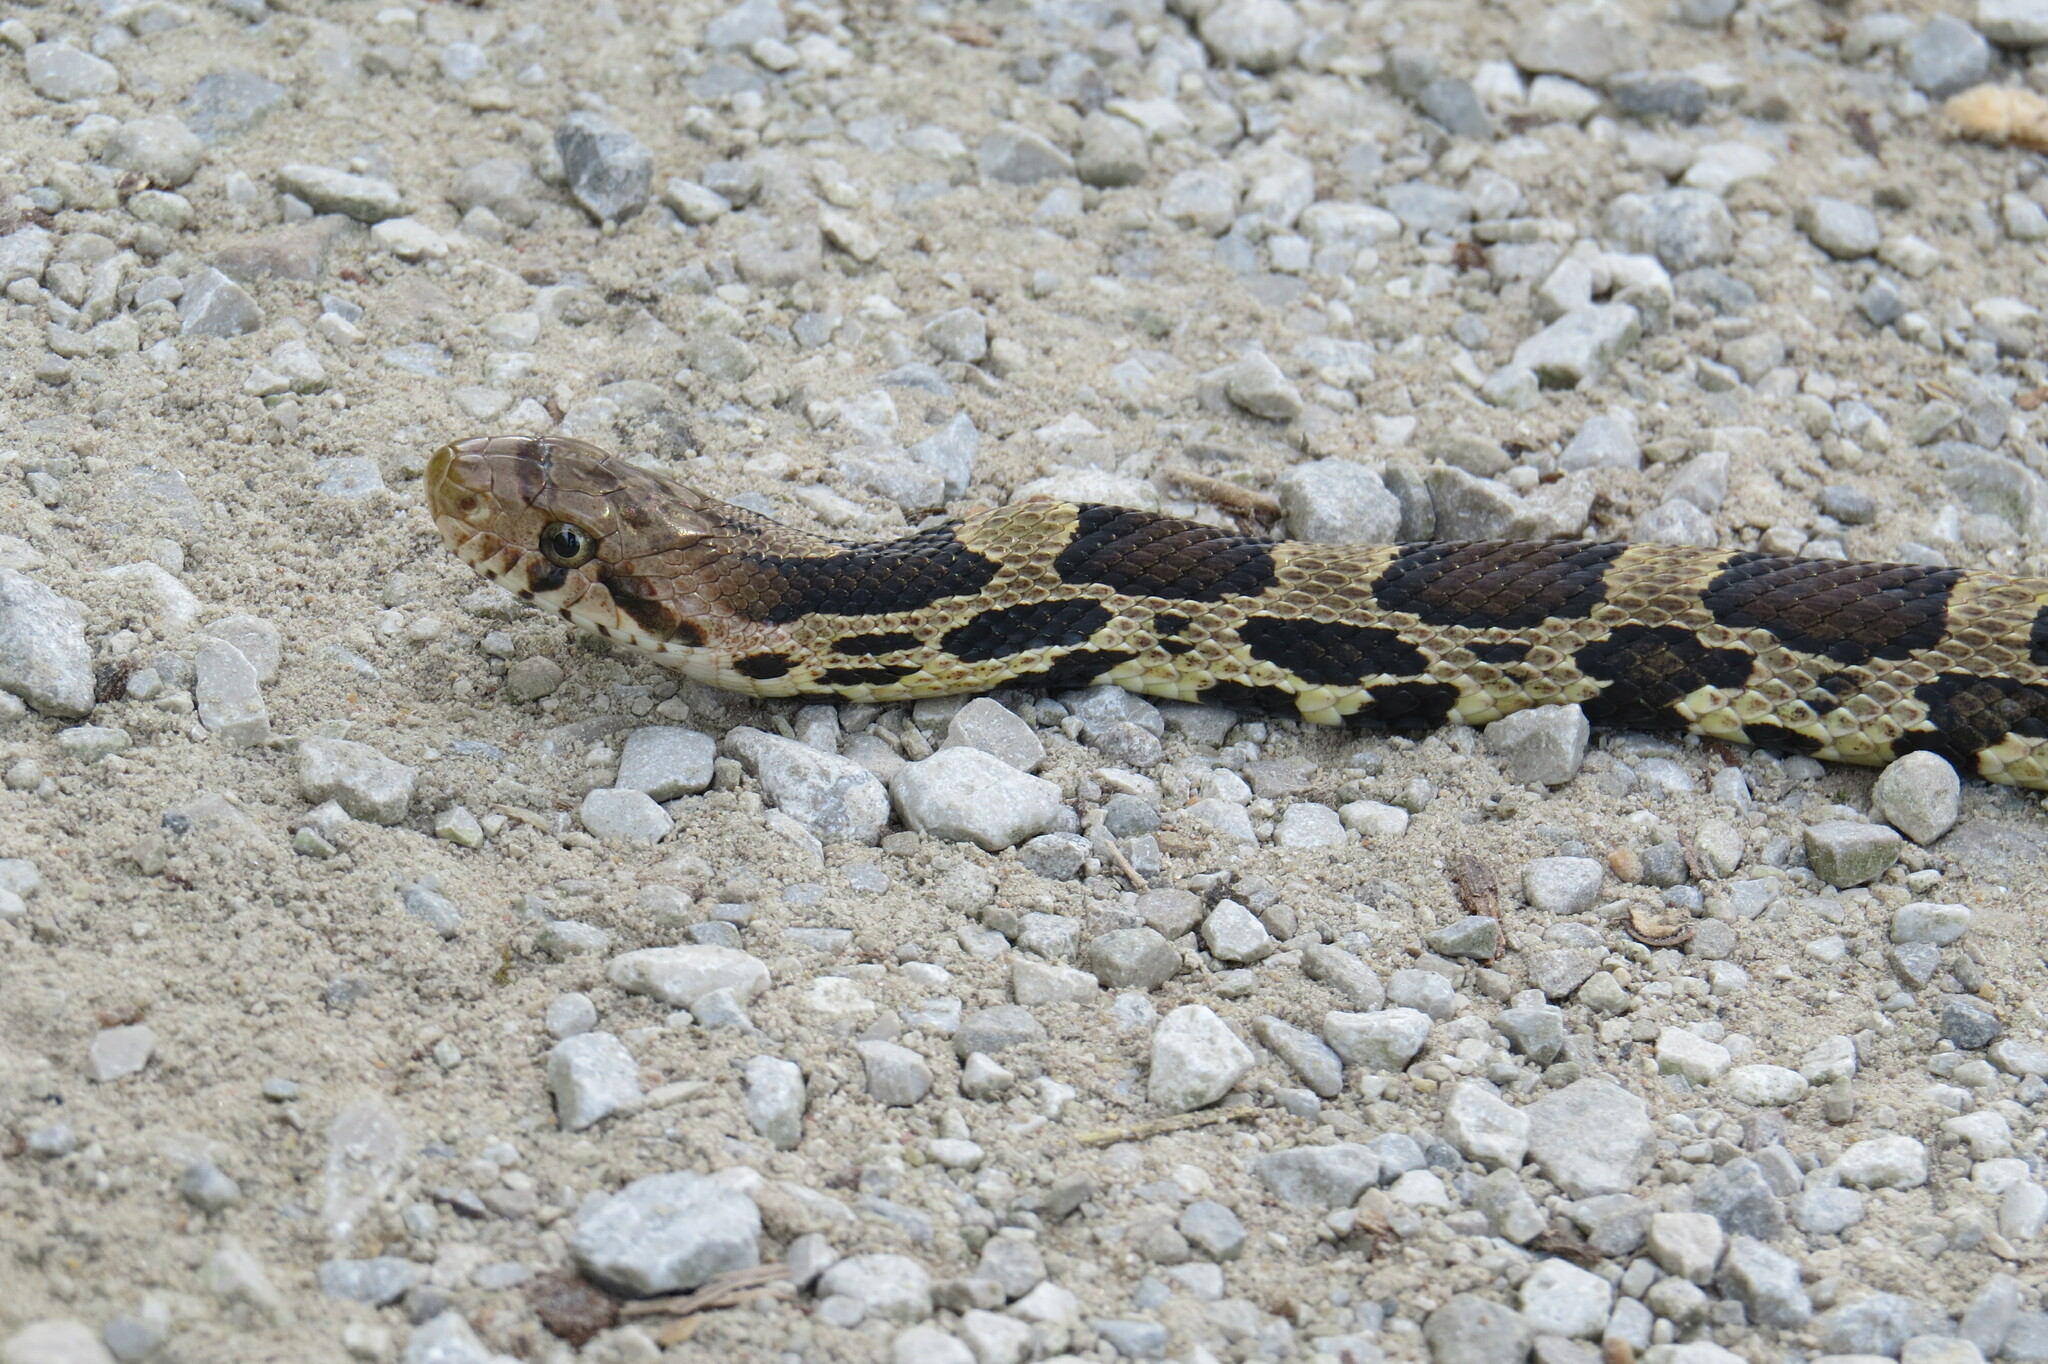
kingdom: Animalia
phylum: Chordata
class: Squamata
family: Colubridae
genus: Pantherophis
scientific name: Pantherophis vulpinus
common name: Eastern fox snake
